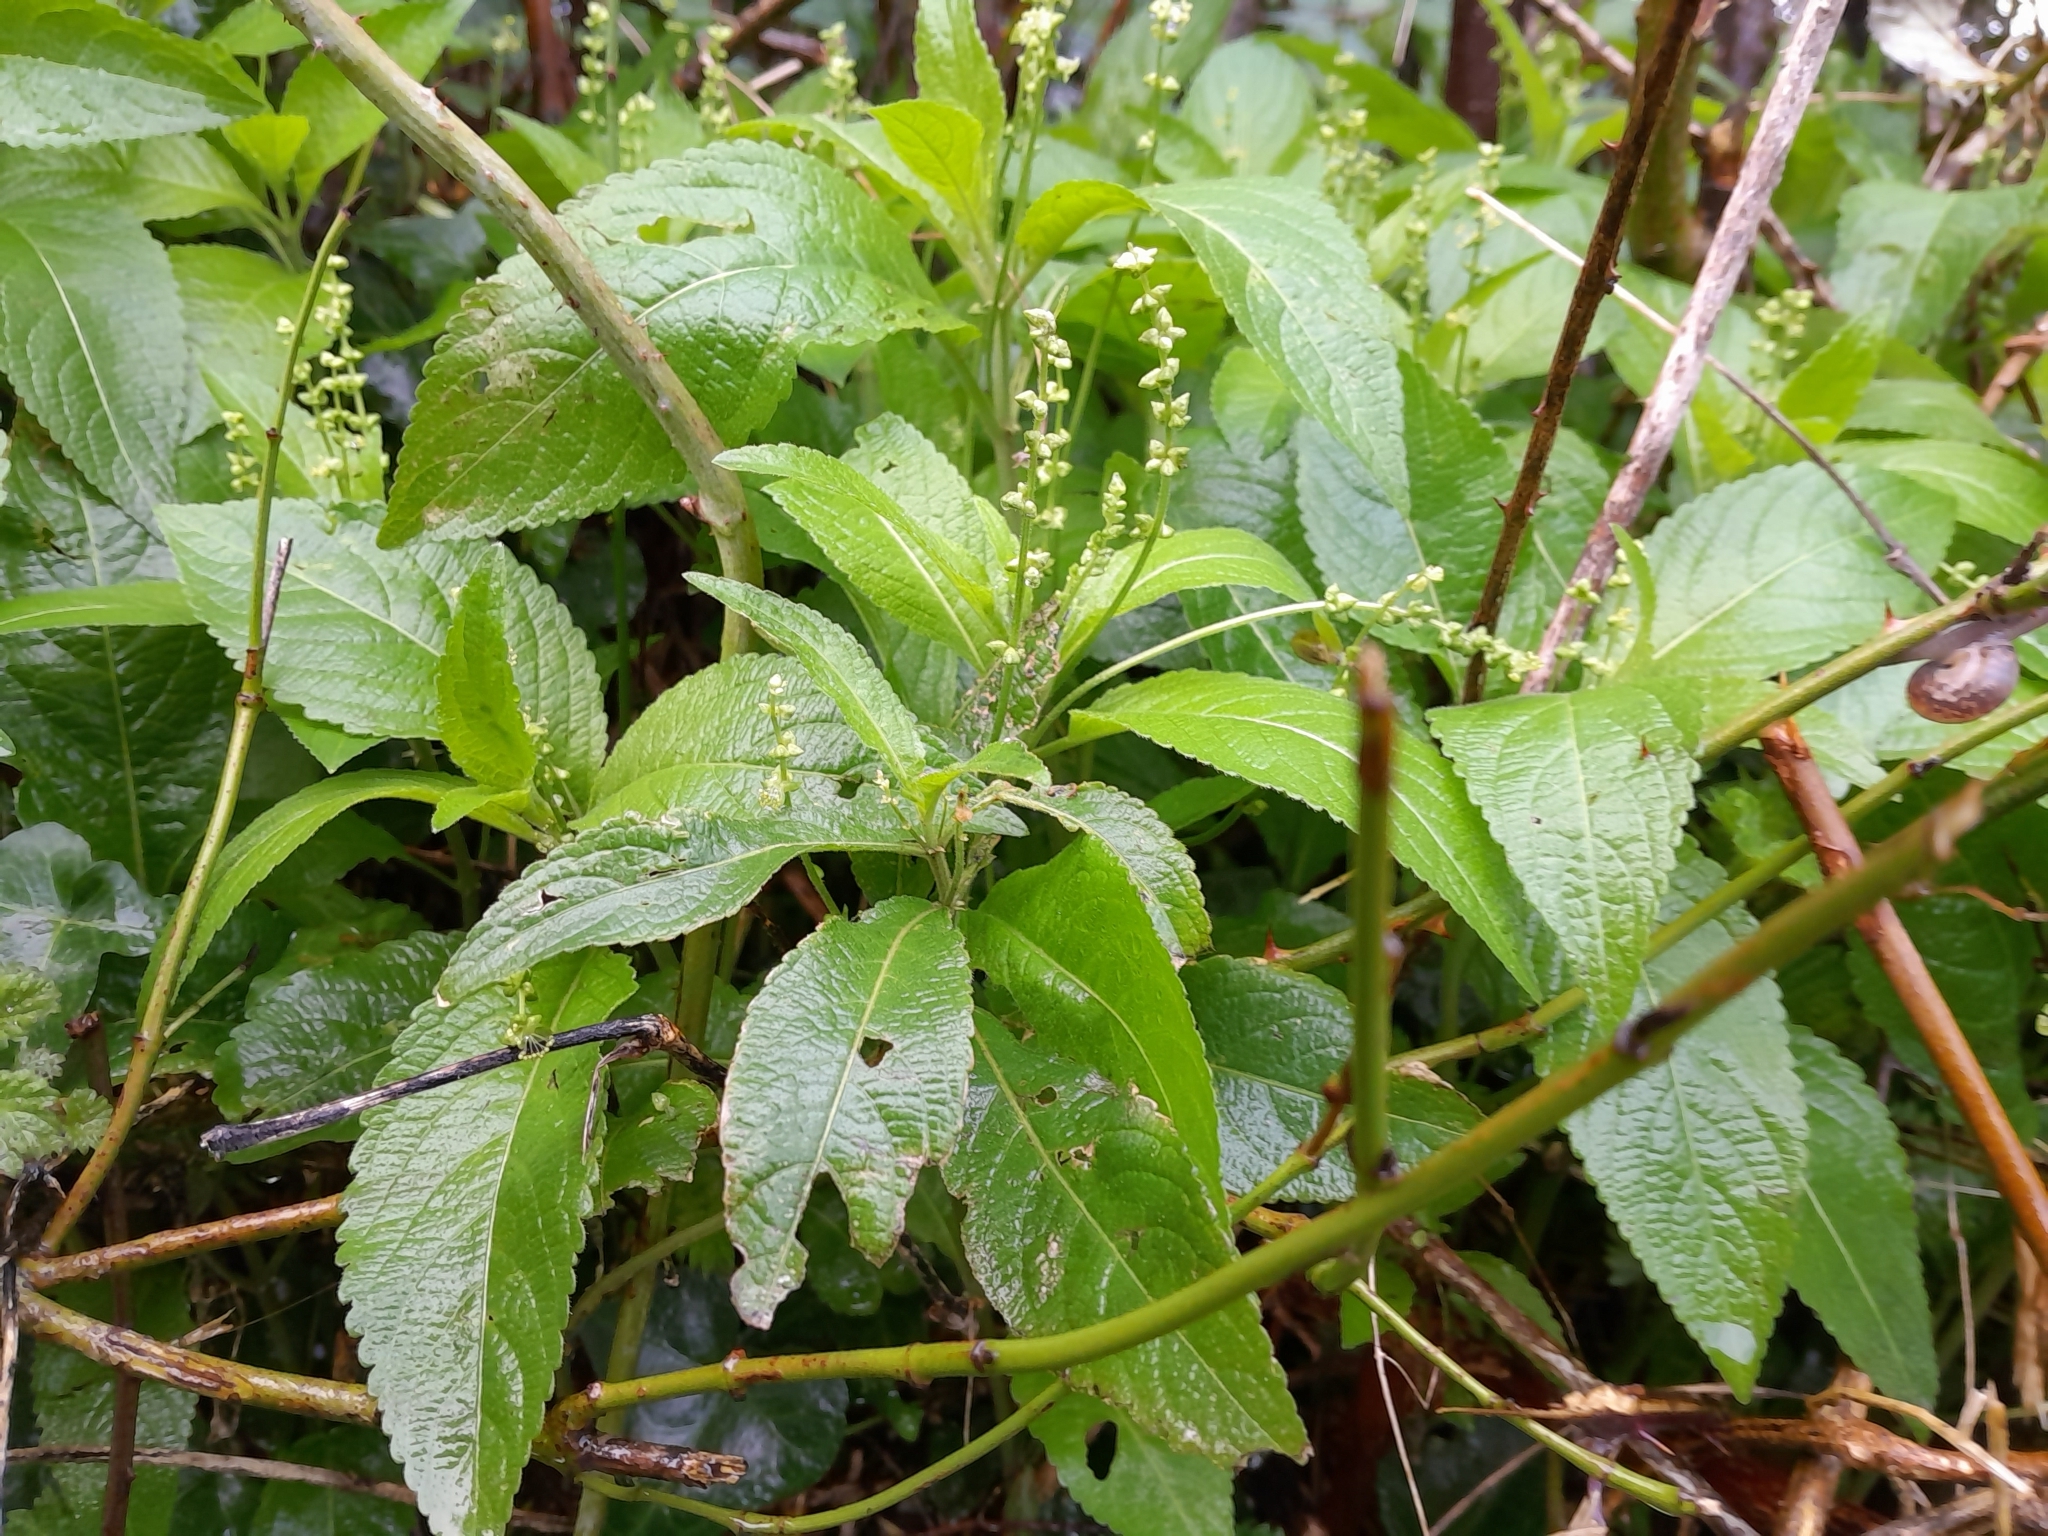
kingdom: Plantae
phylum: Tracheophyta
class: Magnoliopsida
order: Malpighiales
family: Euphorbiaceae
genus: Mercurialis
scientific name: Mercurialis perennis
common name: Dog mercury
